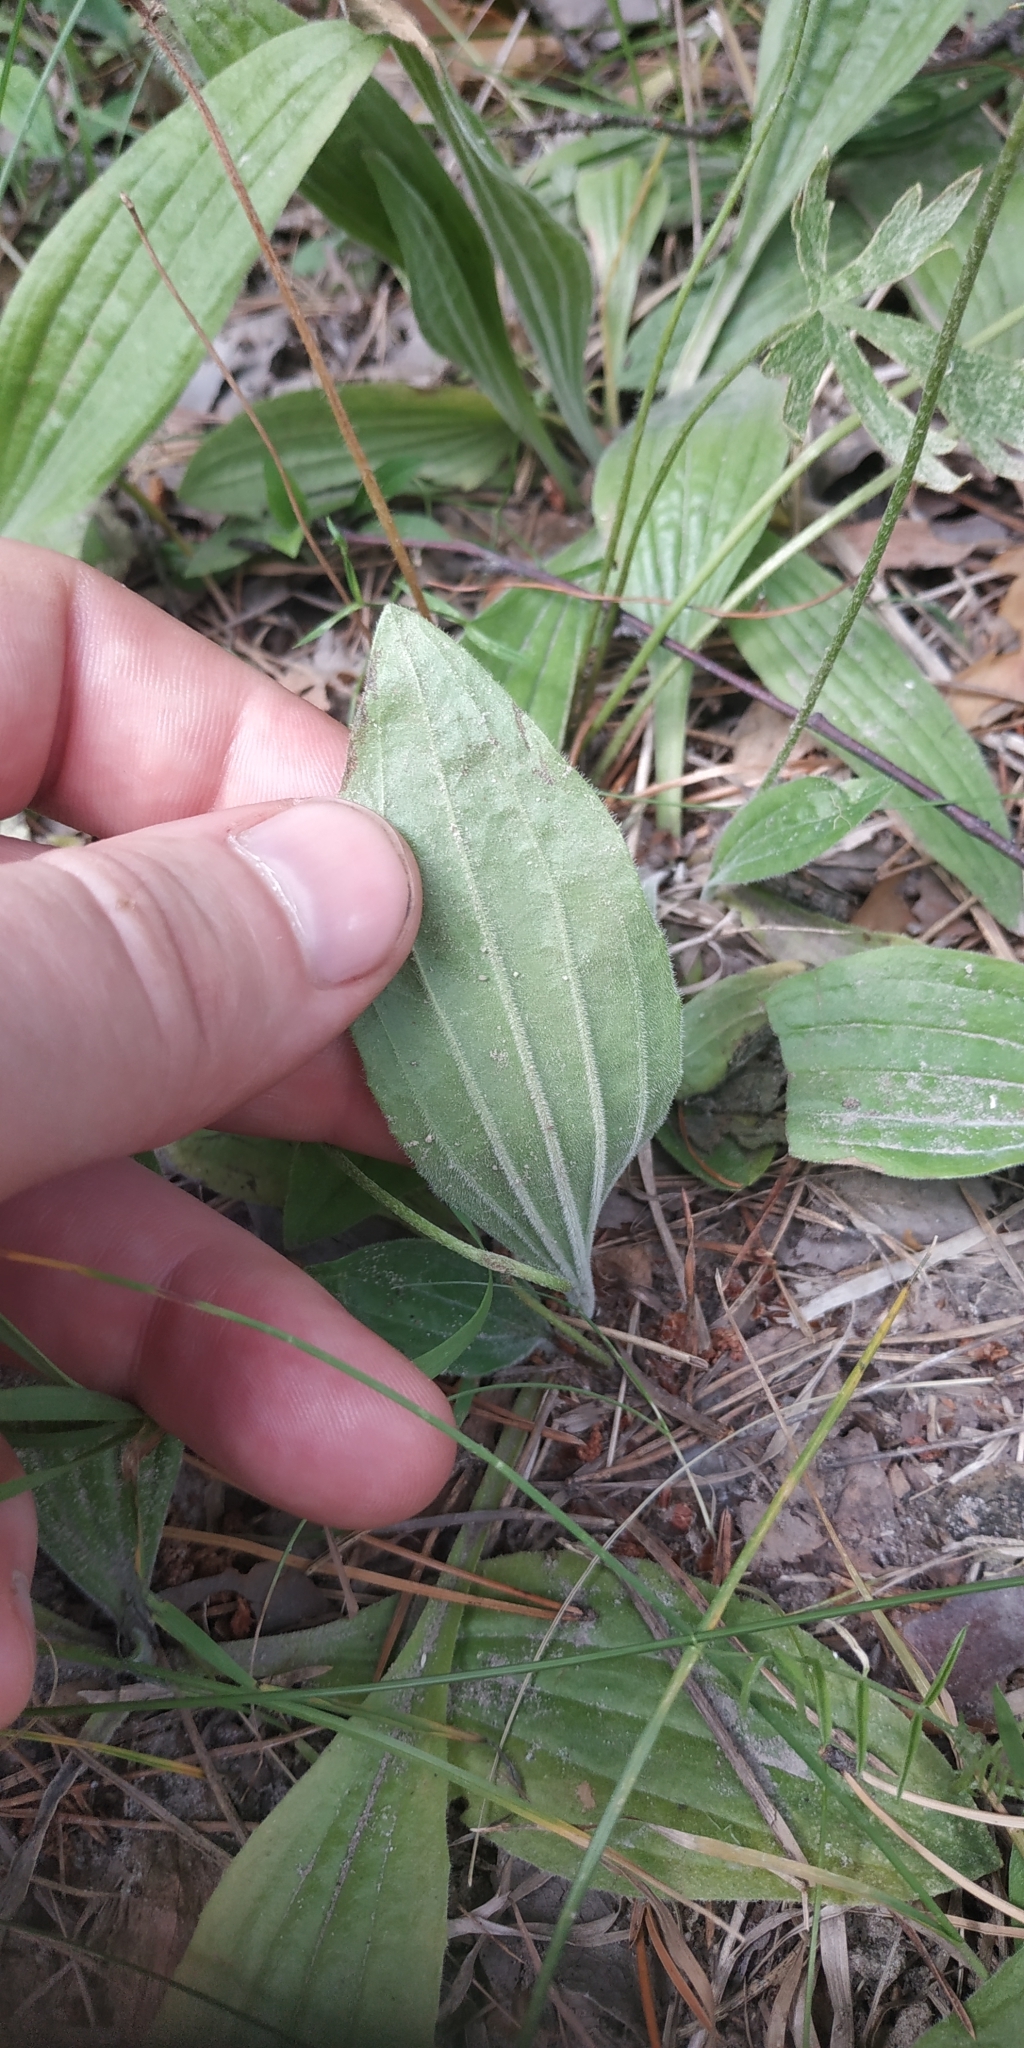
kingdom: Plantae
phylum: Tracheophyta
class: Magnoliopsida
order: Lamiales
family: Plantaginaceae
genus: Plantago
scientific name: Plantago media
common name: Hoary plantain
